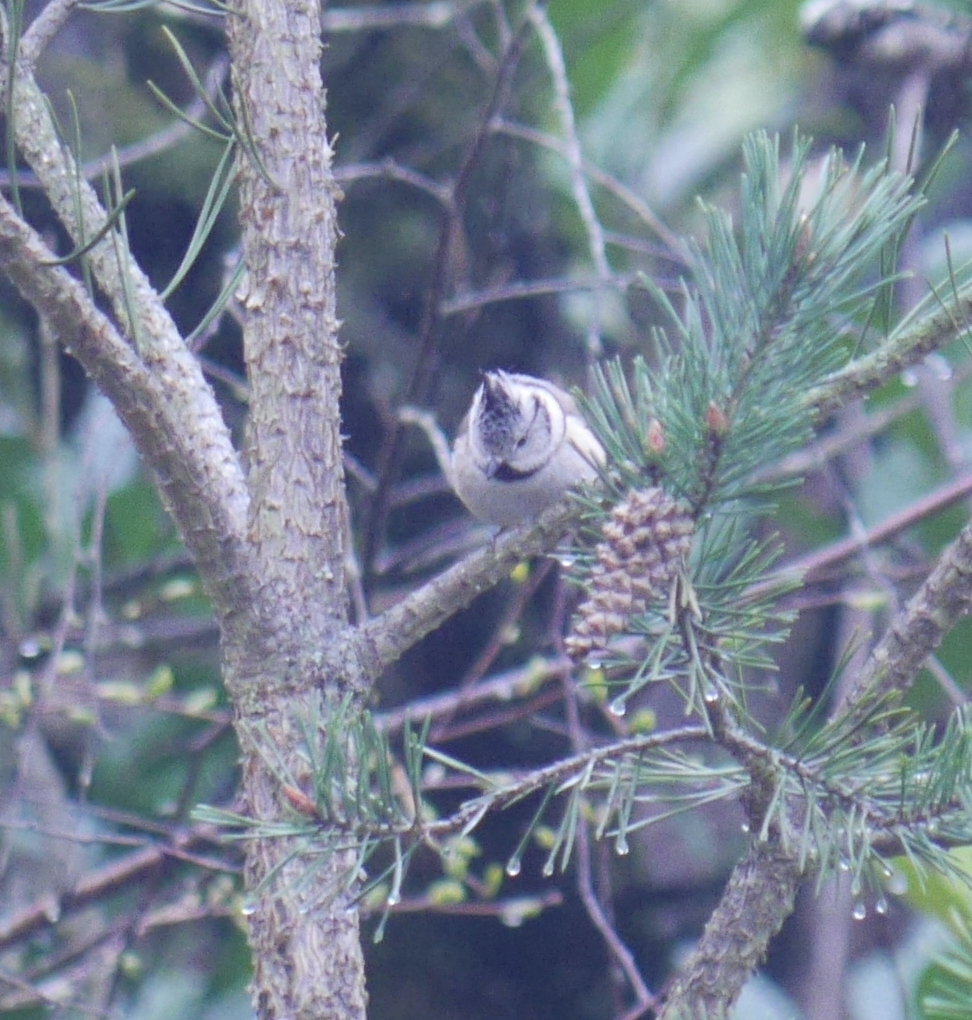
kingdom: Animalia
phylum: Chordata
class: Aves
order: Passeriformes
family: Paridae
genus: Lophophanes
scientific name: Lophophanes cristatus
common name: European crested tit
